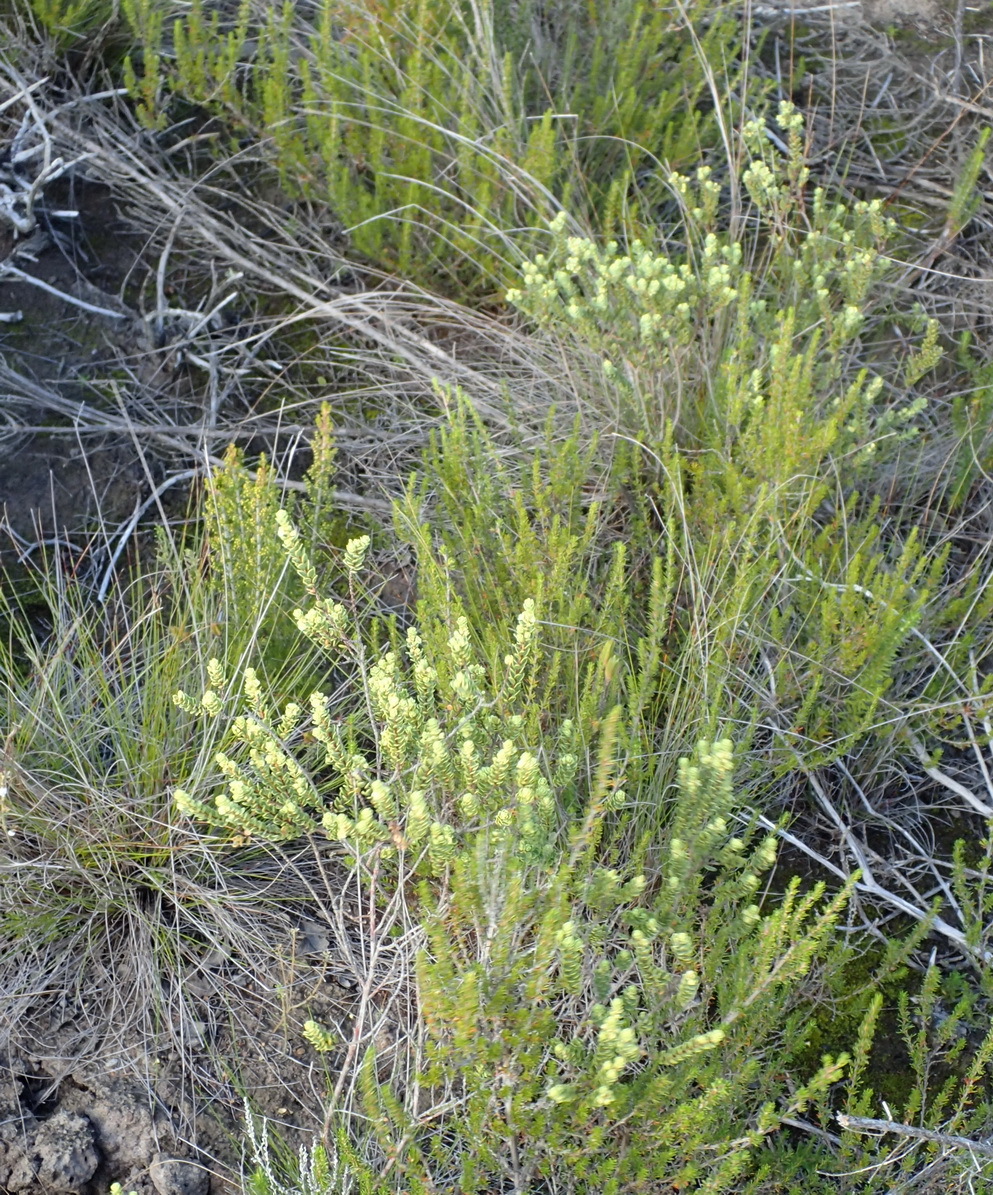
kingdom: Plantae
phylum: Tracheophyta
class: Magnoliopsida
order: Malpighiales
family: Peraceae
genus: Clutia
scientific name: Clutia laxa
